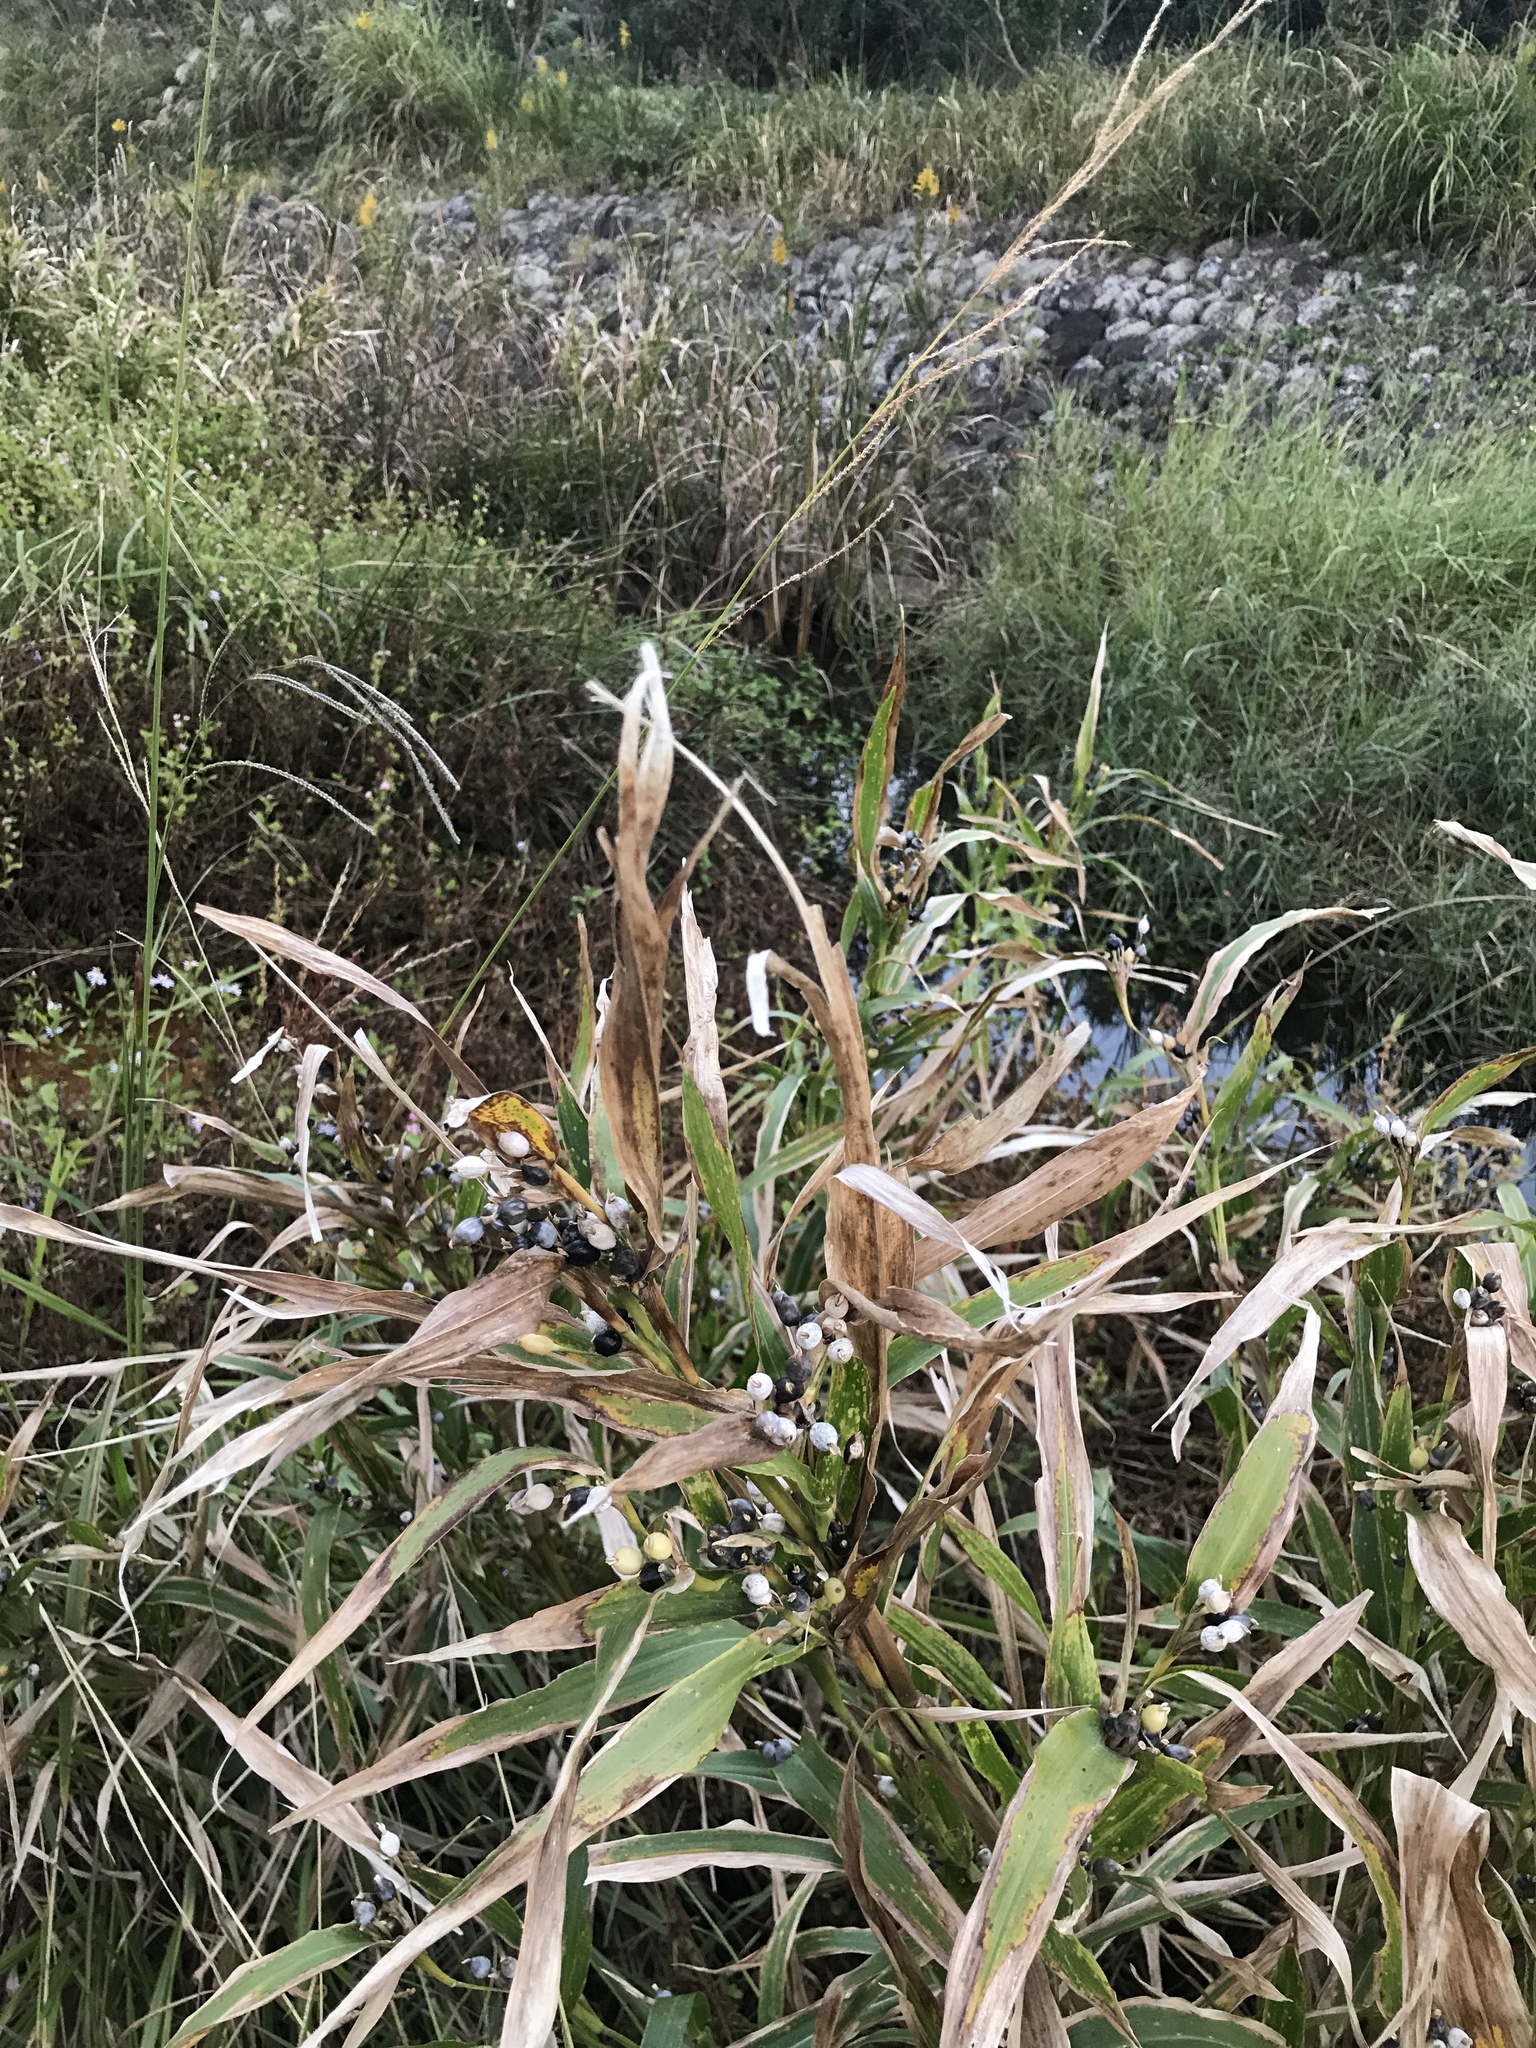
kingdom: Plantae
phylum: Tracheophyta
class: Liliopsida
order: Poales
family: Poaceae
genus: Coix
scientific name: Coix lacryma-jobi
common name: Job's tears
